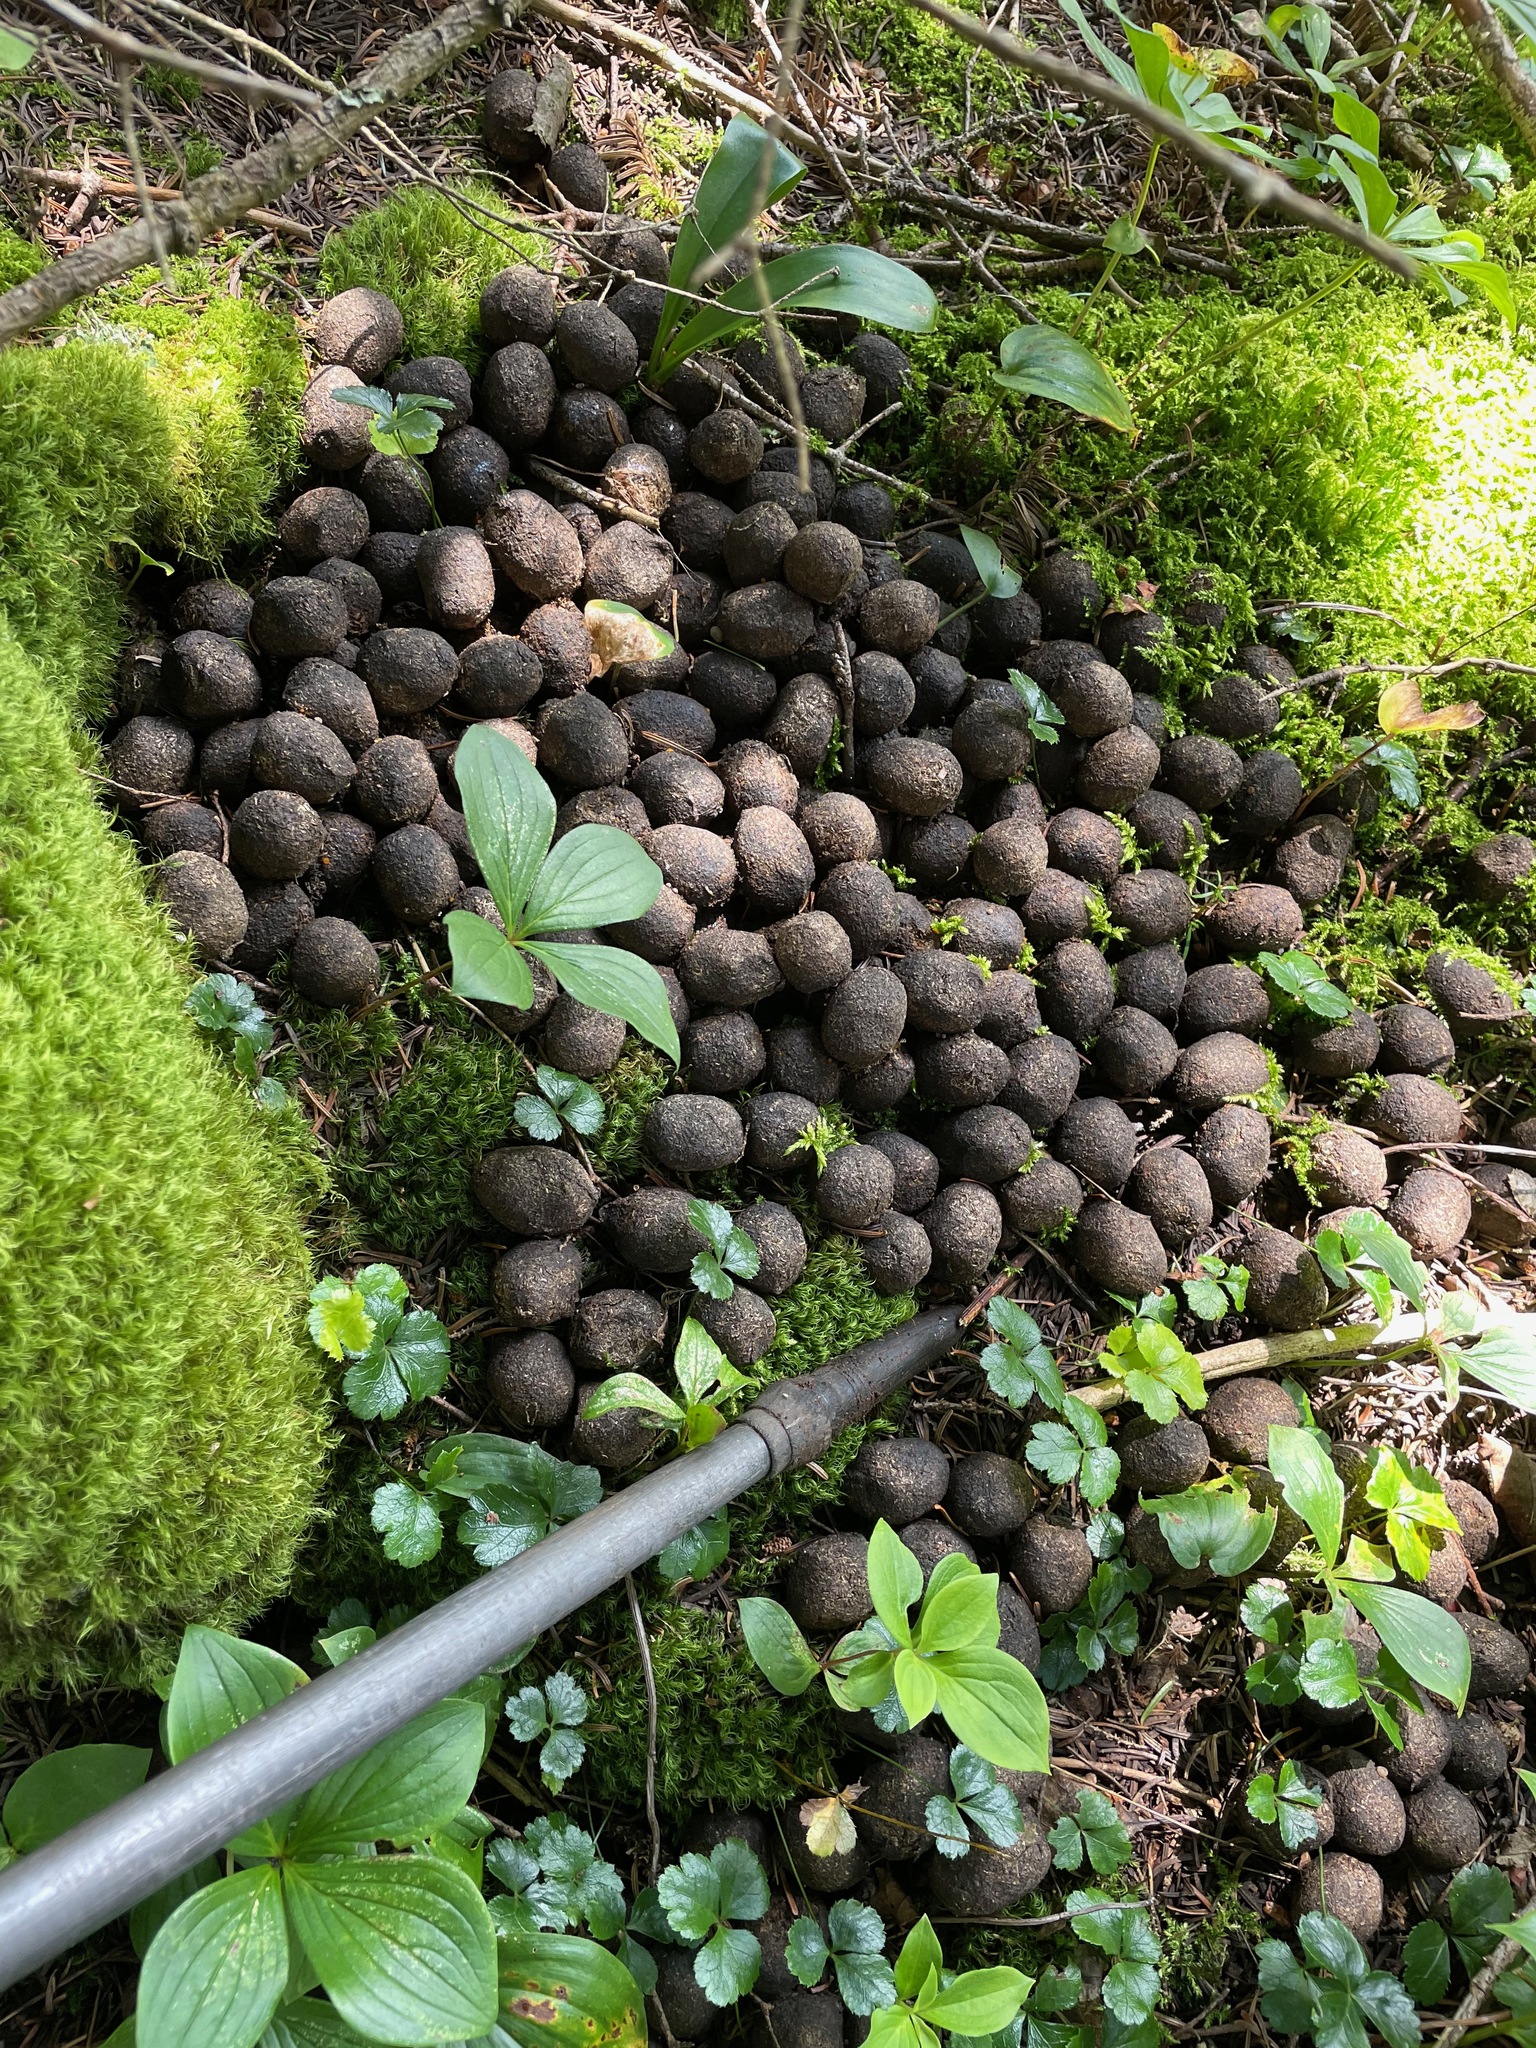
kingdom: Animalia
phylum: Chordata
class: Mammalia
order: Artiodactyla
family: Cervidae
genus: Alces
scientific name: Alces alces
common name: Moose
